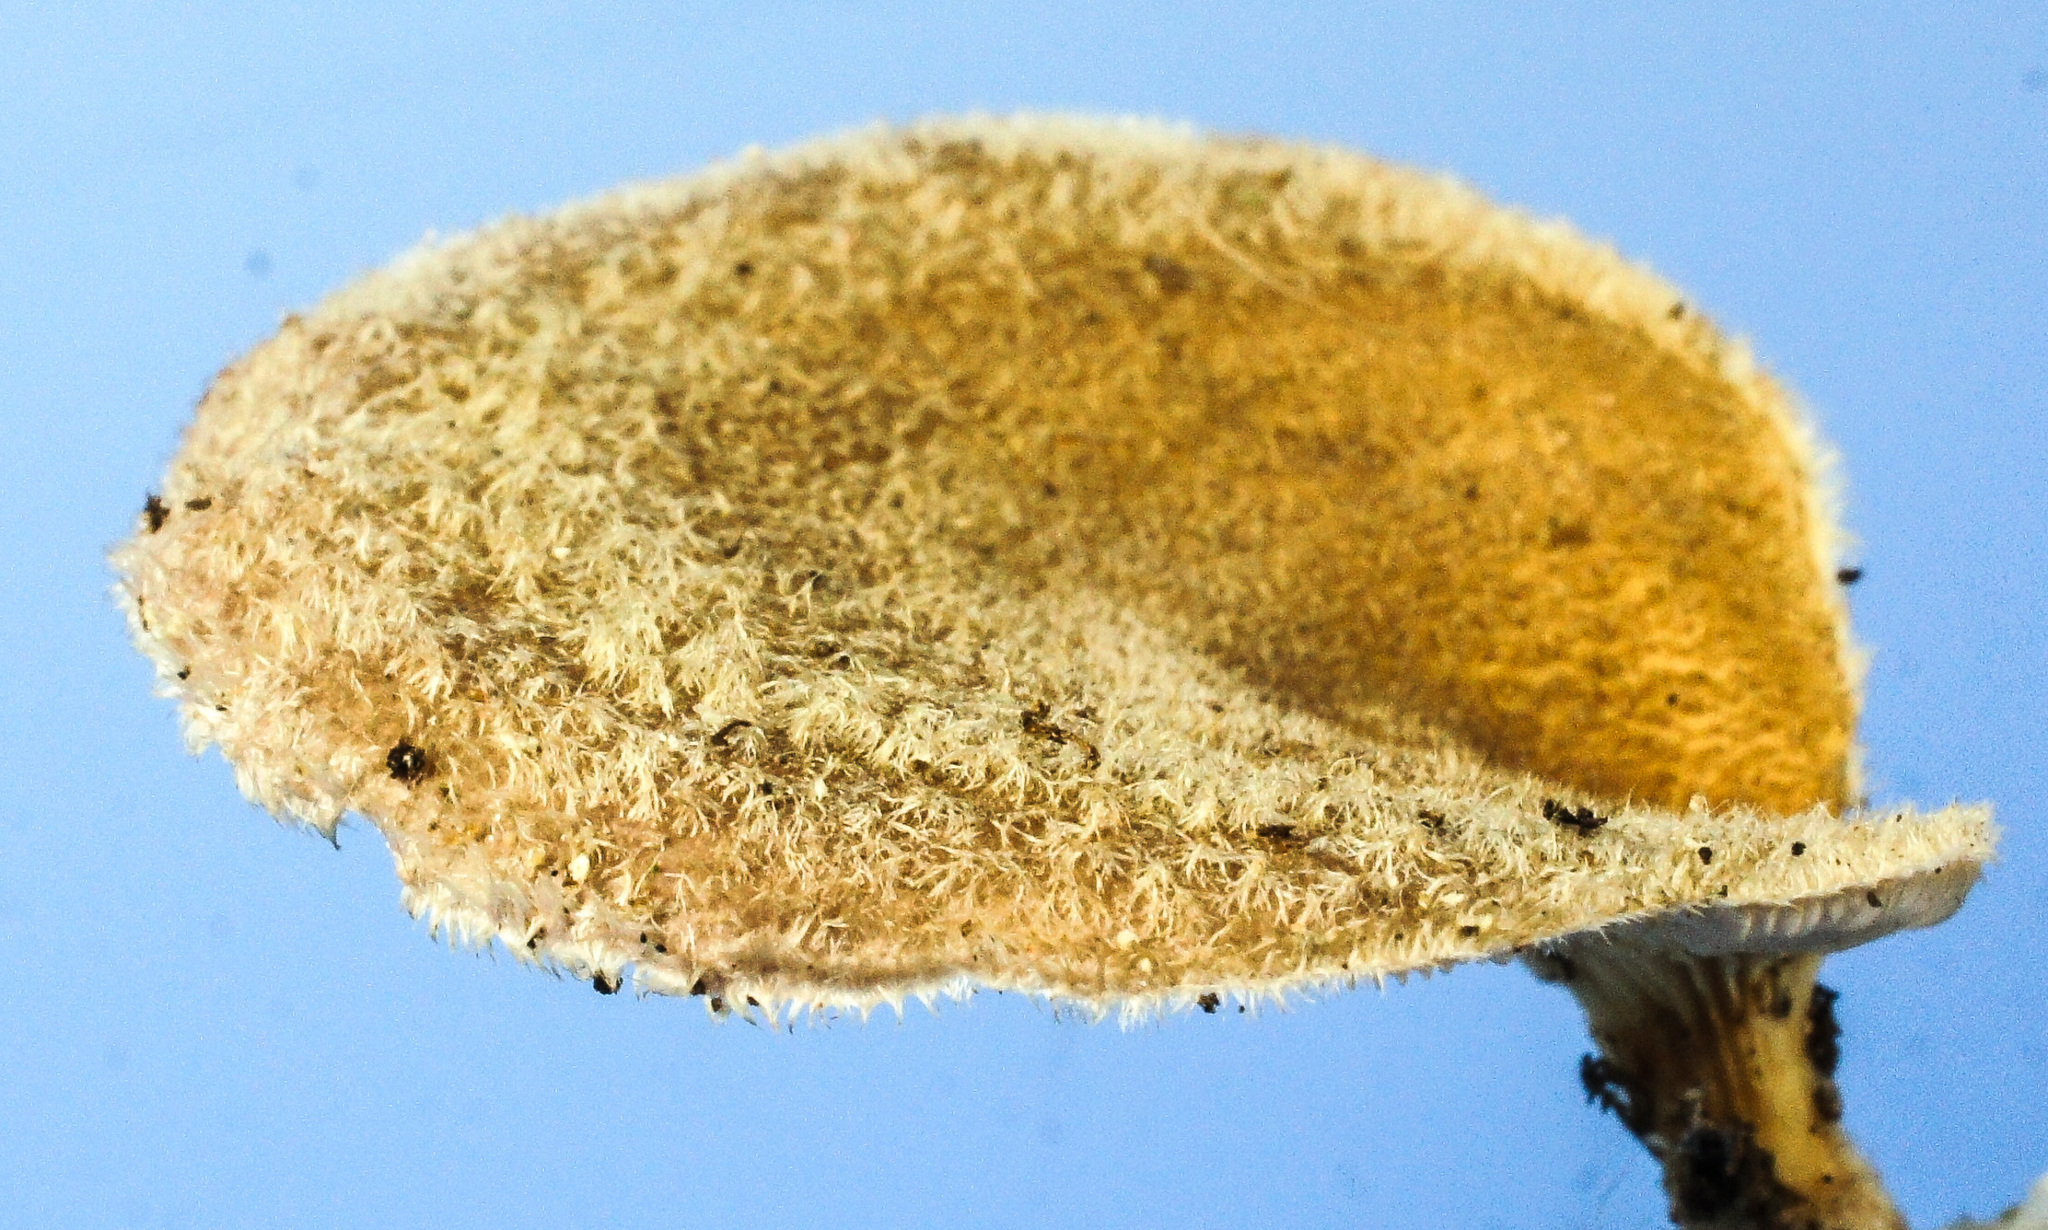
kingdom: Fungi
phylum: Basidiomycota
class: Agaricomycetes
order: Polyporales
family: Panaceae
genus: Panus
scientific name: Panus neostrigosus
